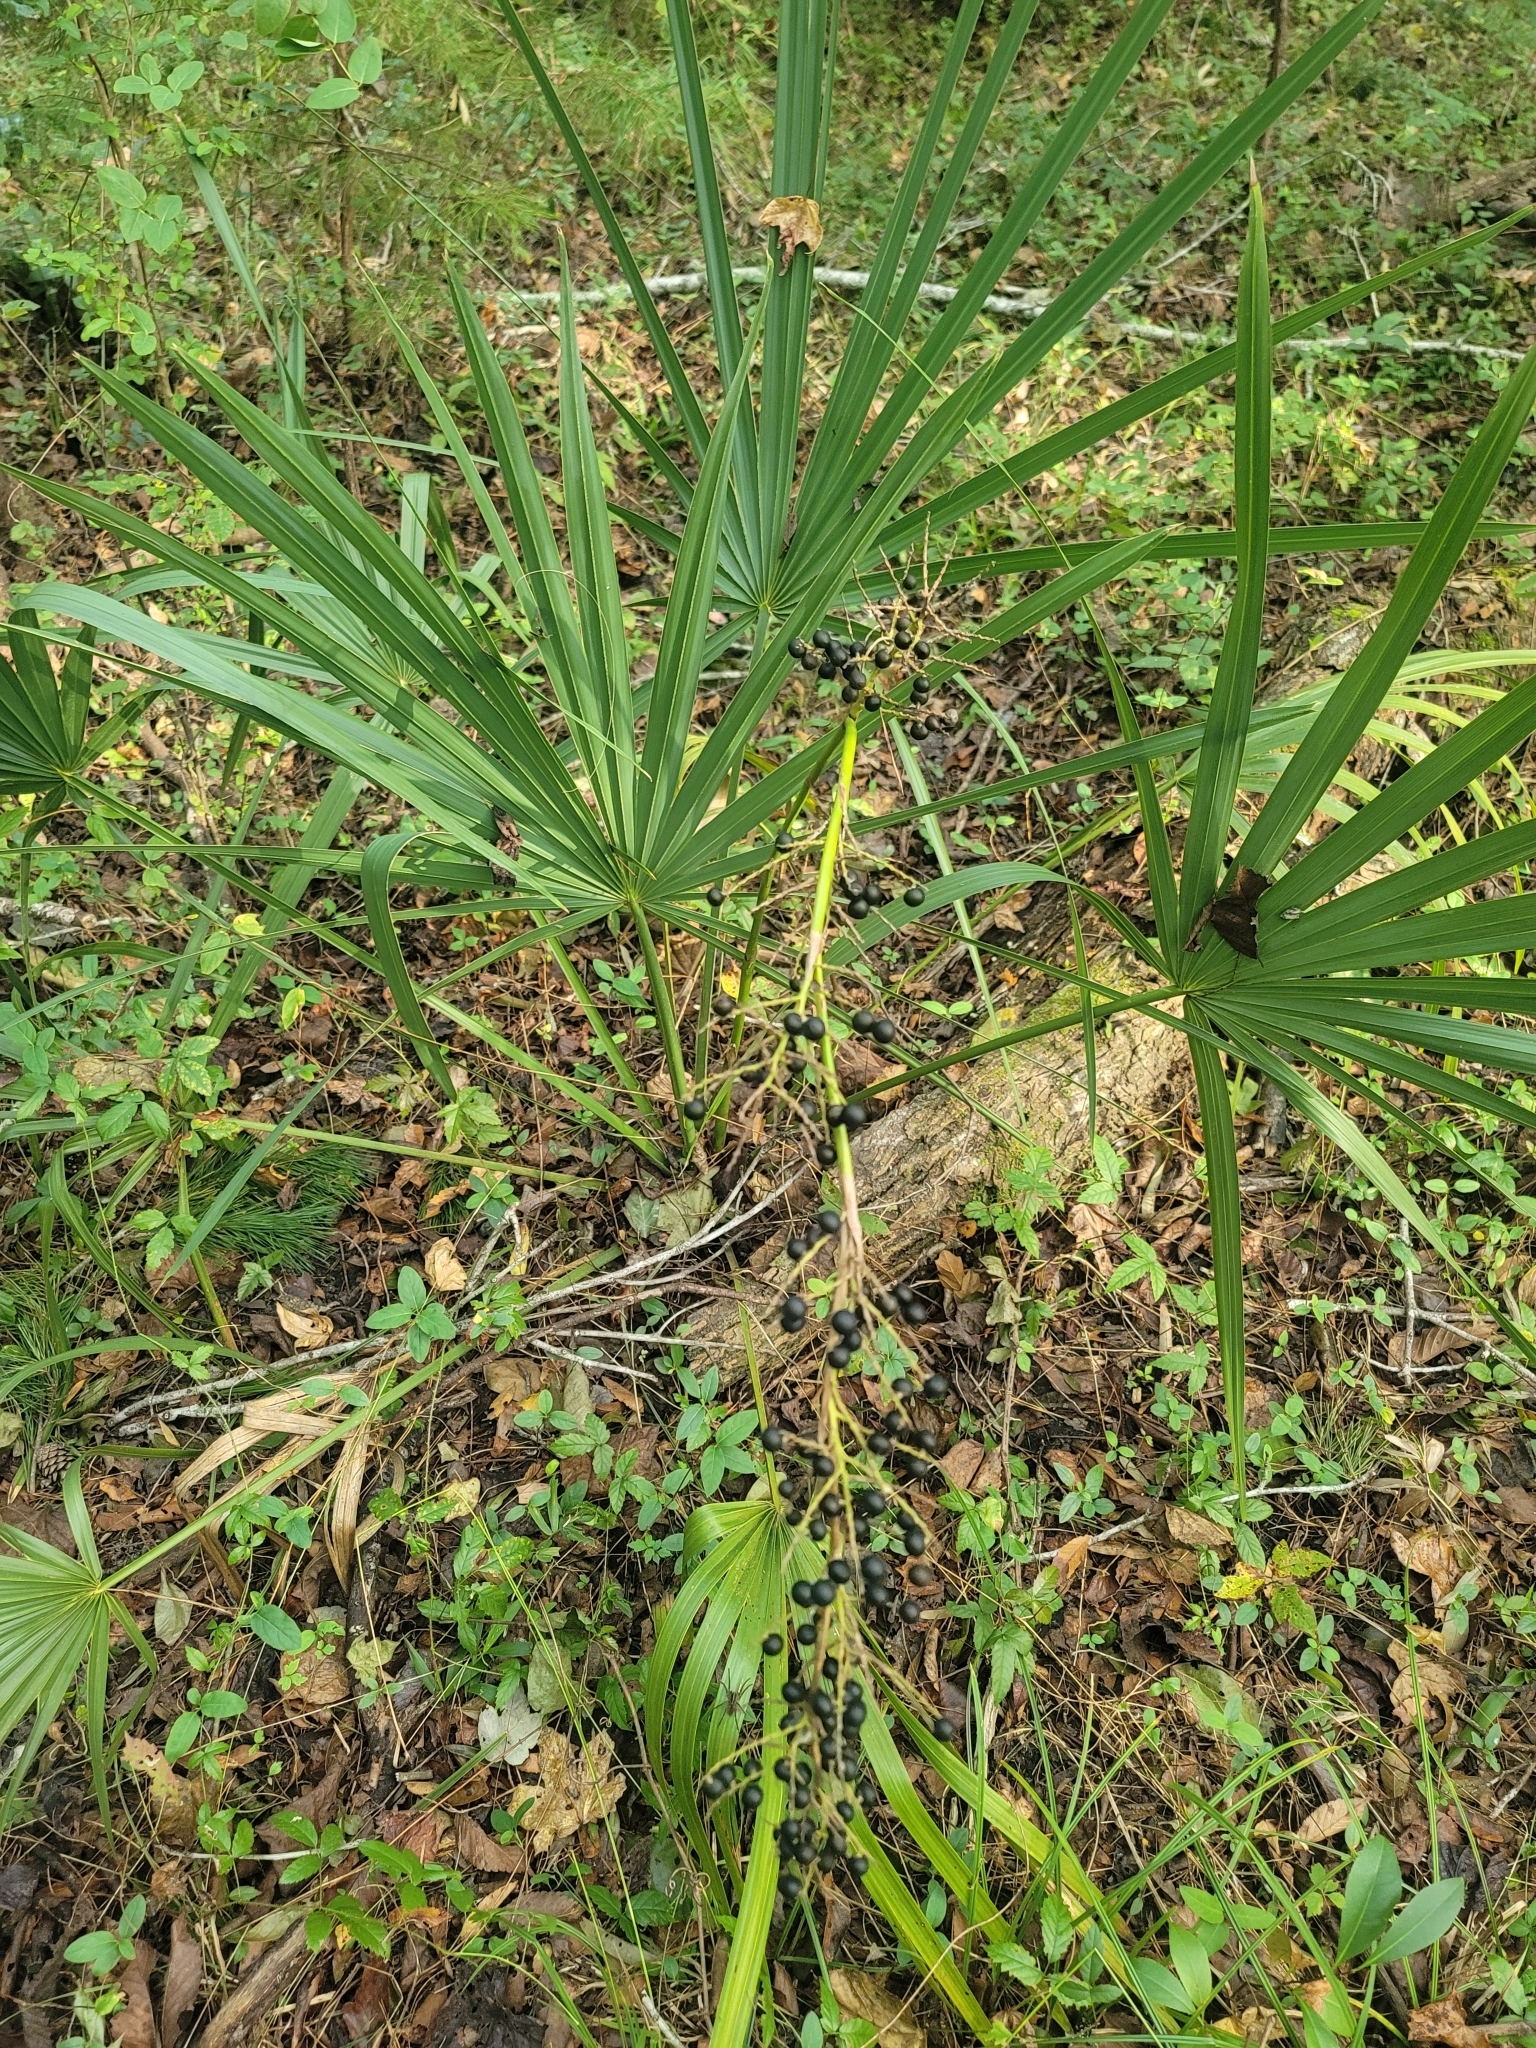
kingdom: Plantae
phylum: Tracheophyta
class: Liliopsida
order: Arecales
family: Arecaceae
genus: Sabal
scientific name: Sabal minor
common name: Dwarf palmetto
